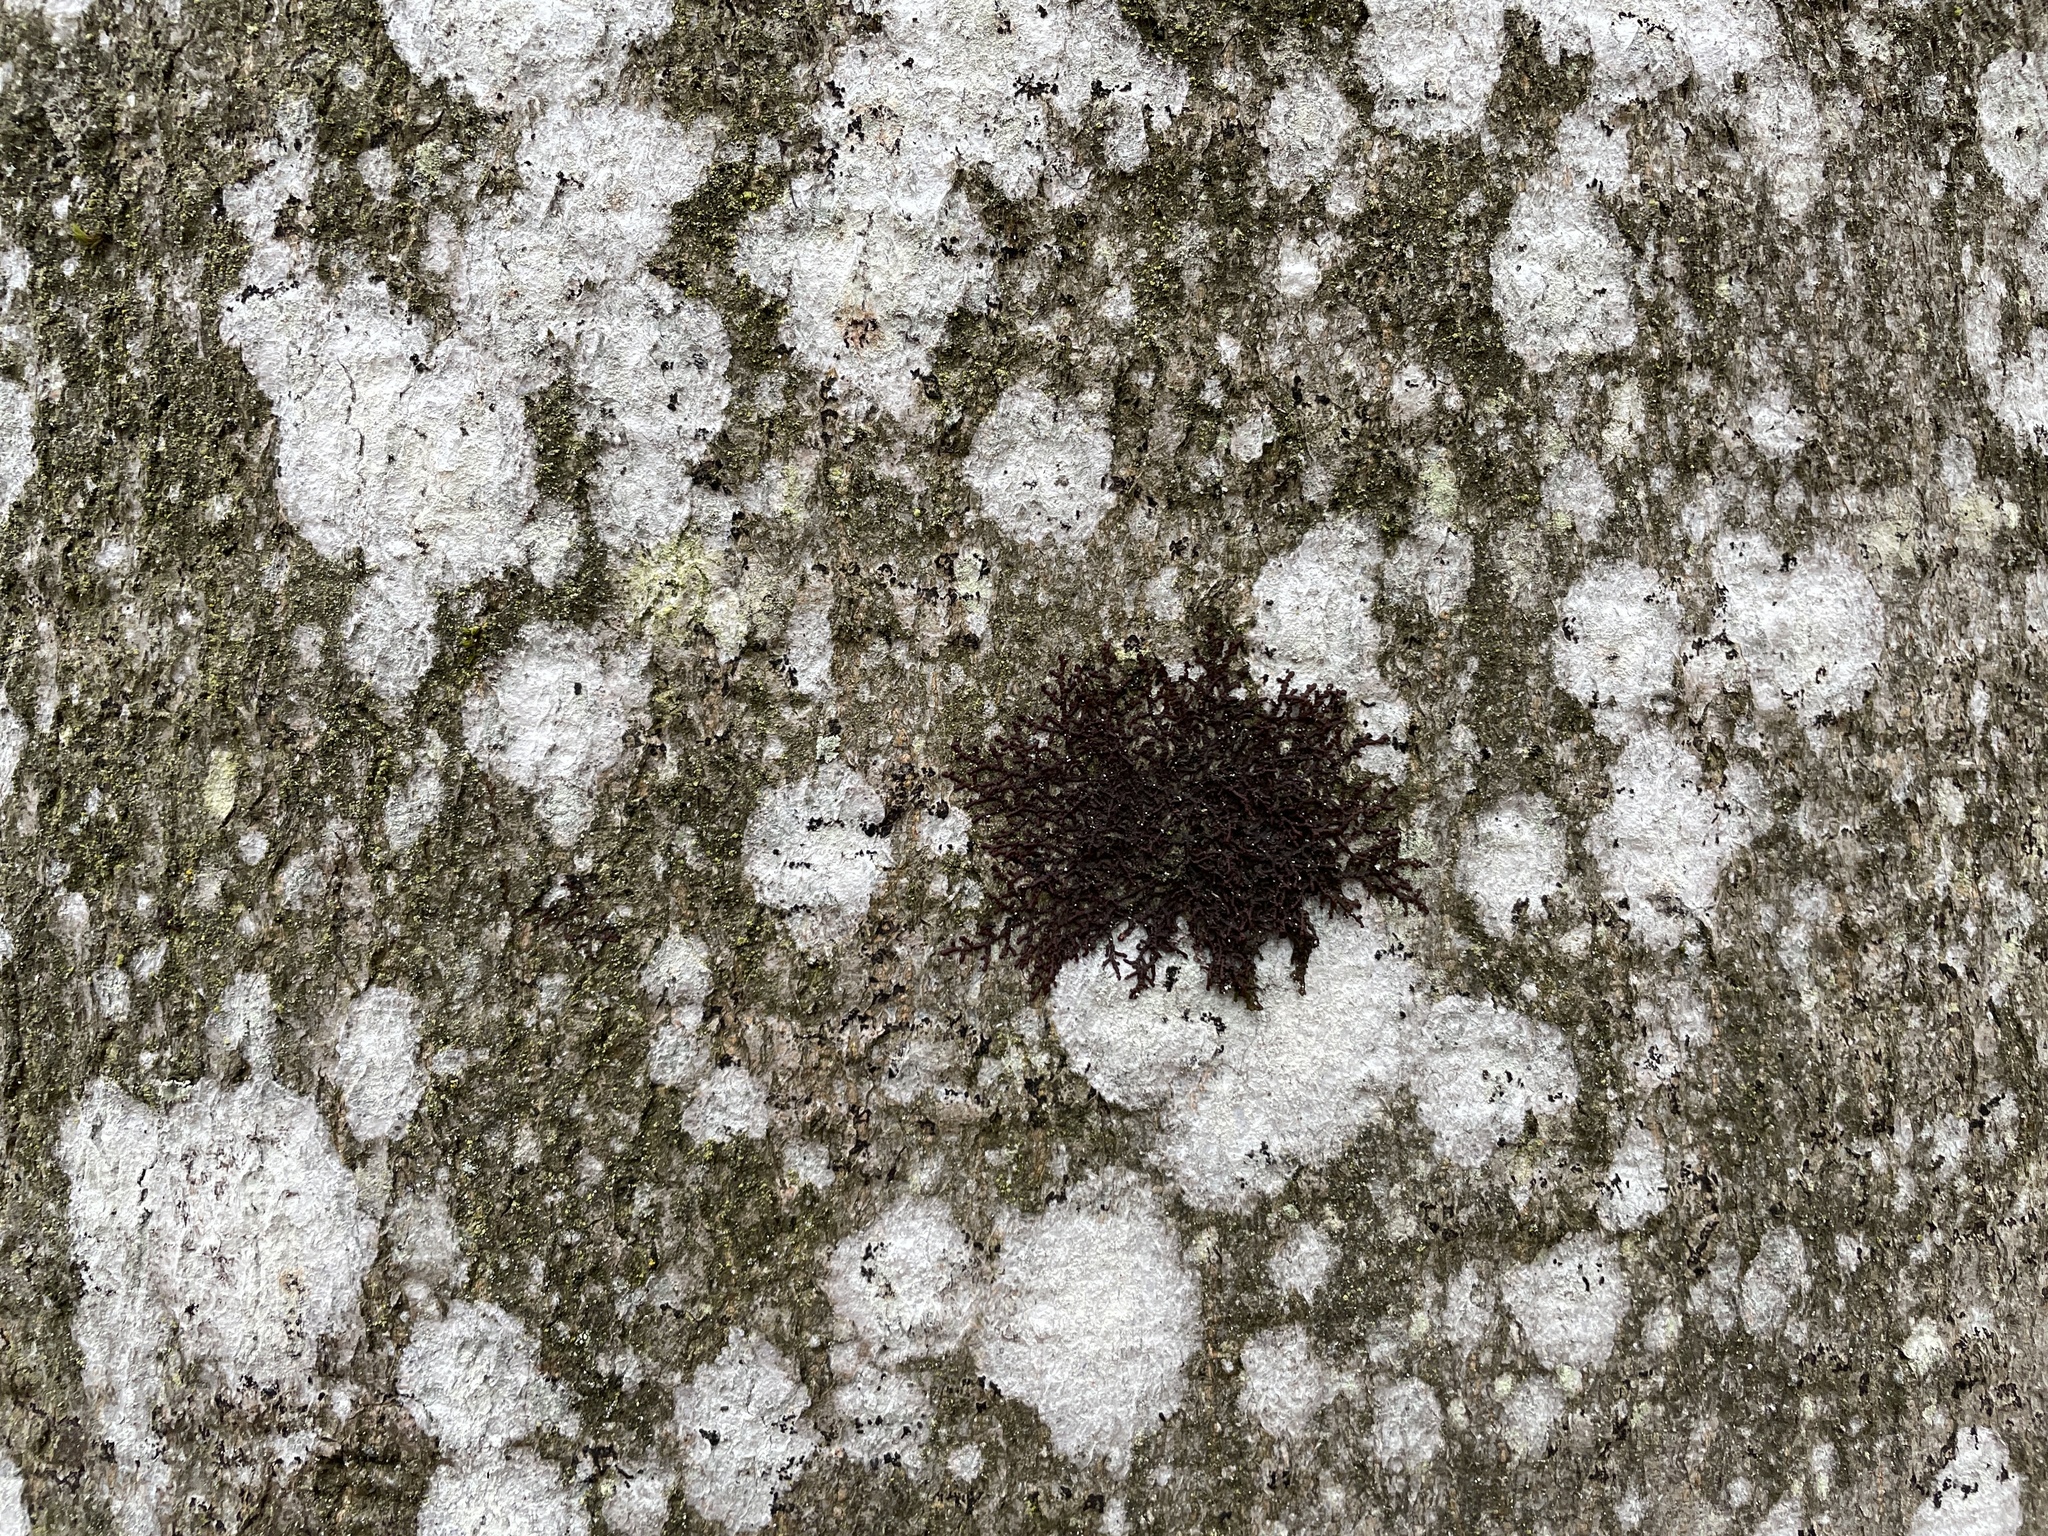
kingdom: Plantae
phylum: Marchantiophyta
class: Jungermanniopsida
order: Porellales
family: Frullaniaceae
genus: Frullania
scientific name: Frullania dilatata
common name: Dilated scalewort
